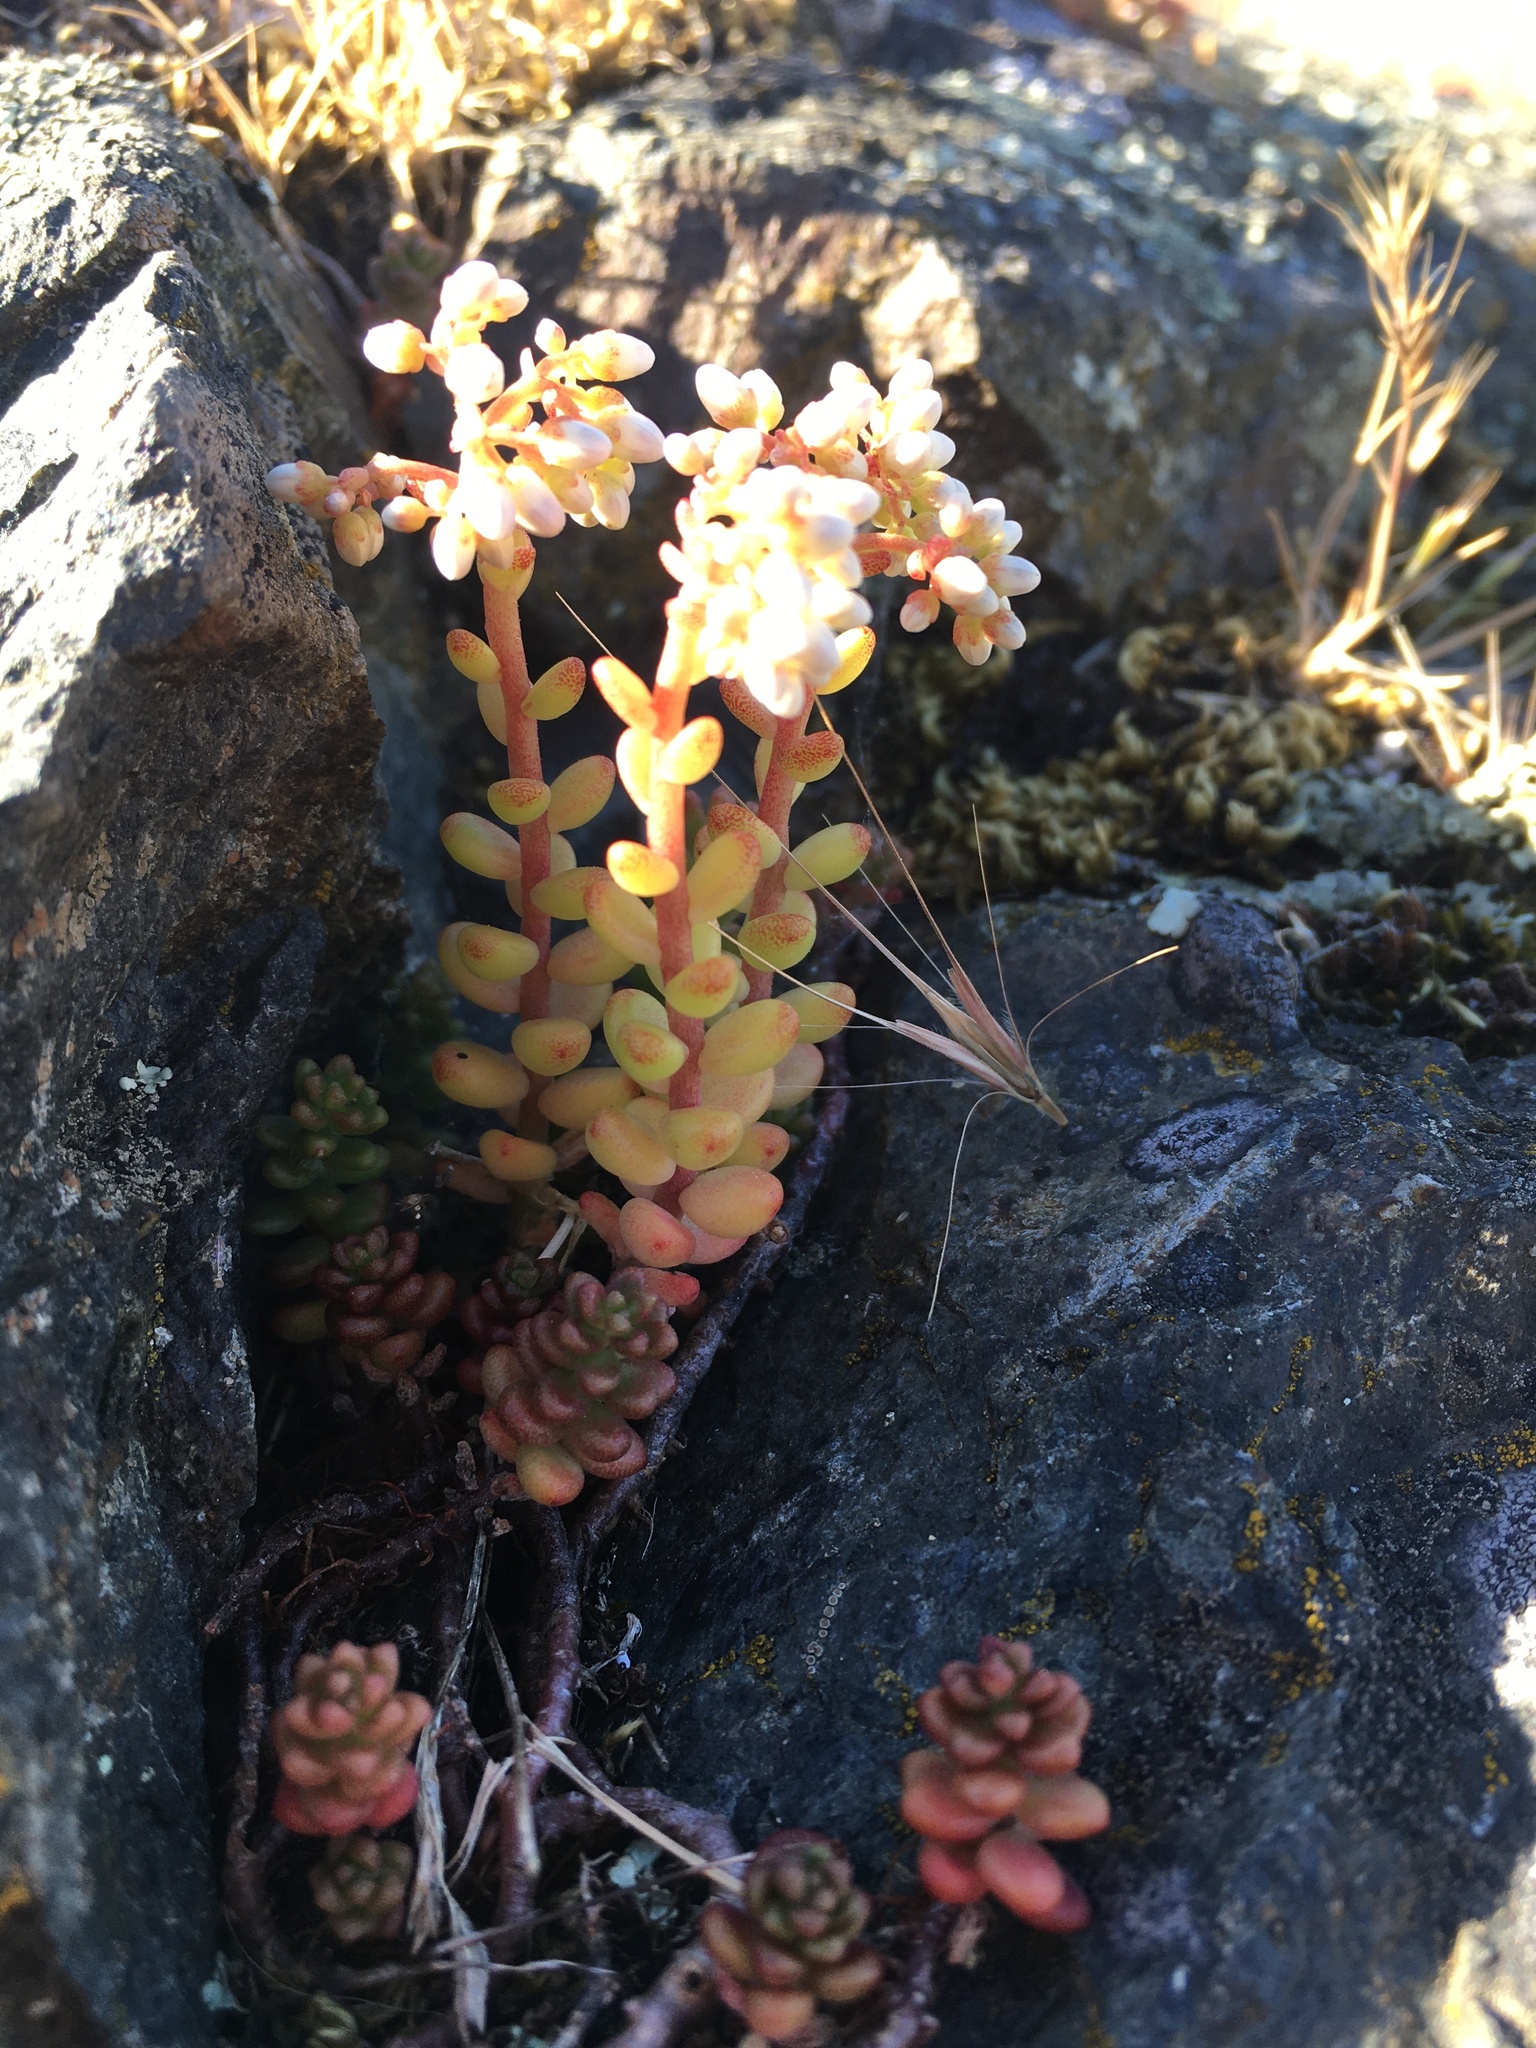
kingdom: Plantae
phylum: Tracheophyta
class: Magnoliopsida
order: Saxifragales
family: Crassulaceae
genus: Sedum
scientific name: Sedum album
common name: White stonecrop
